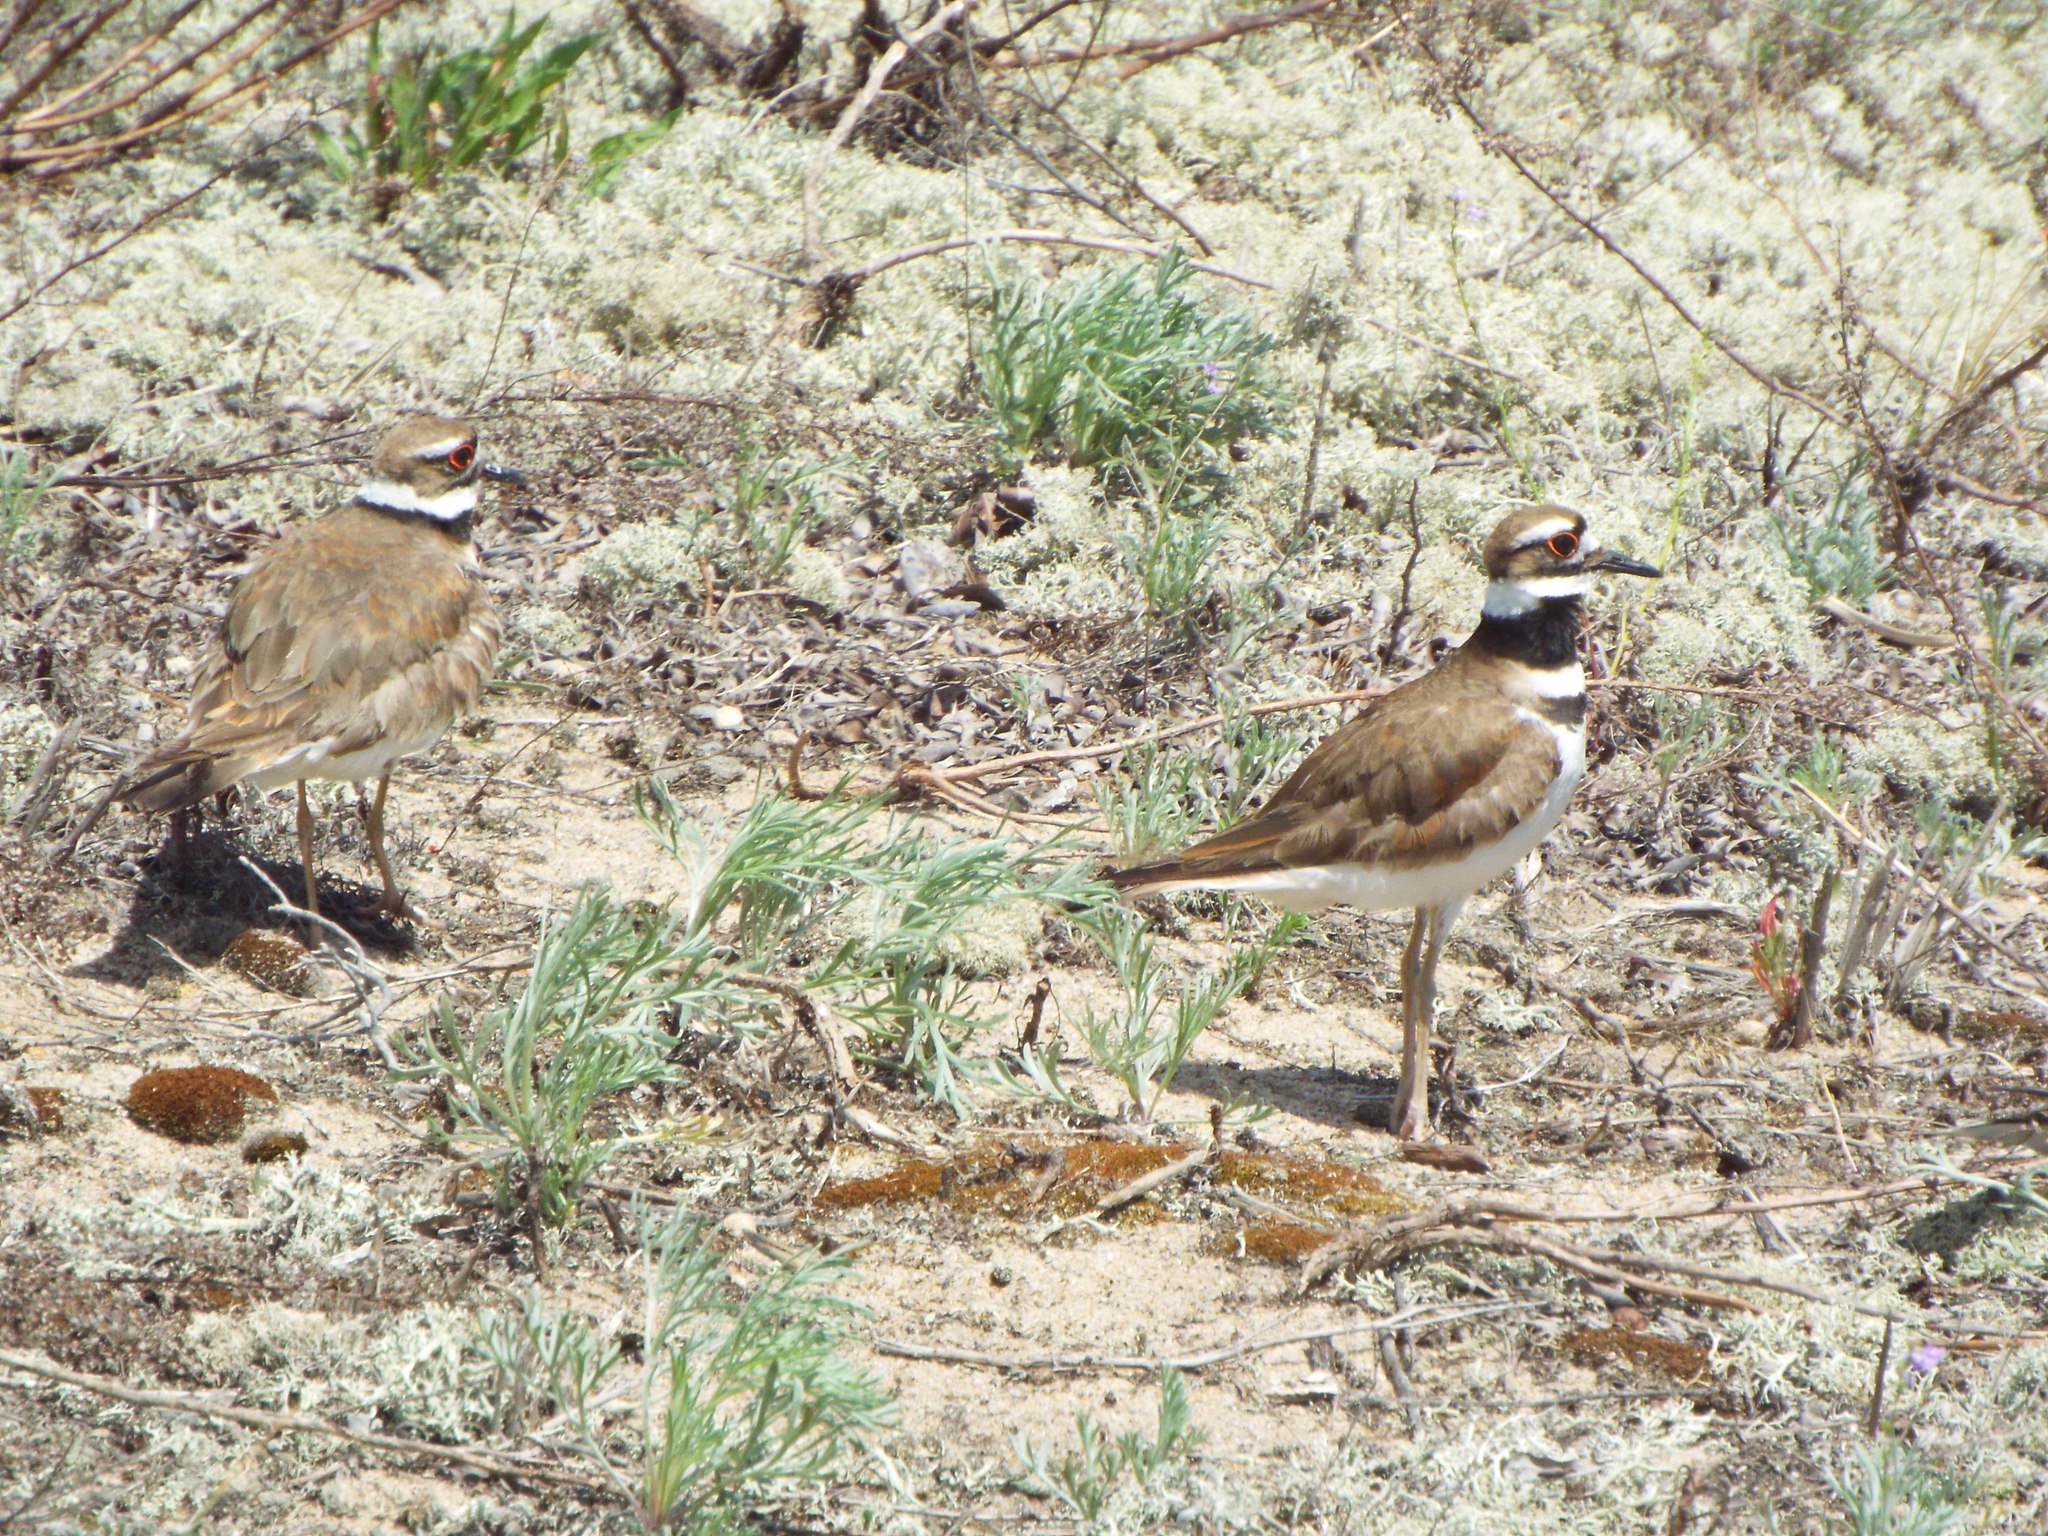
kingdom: Animalia
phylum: Chordata
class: Aves
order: Charadriiformes
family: Charadriidae
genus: Charadrius
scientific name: Charadrius vociferus
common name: Killdeer
